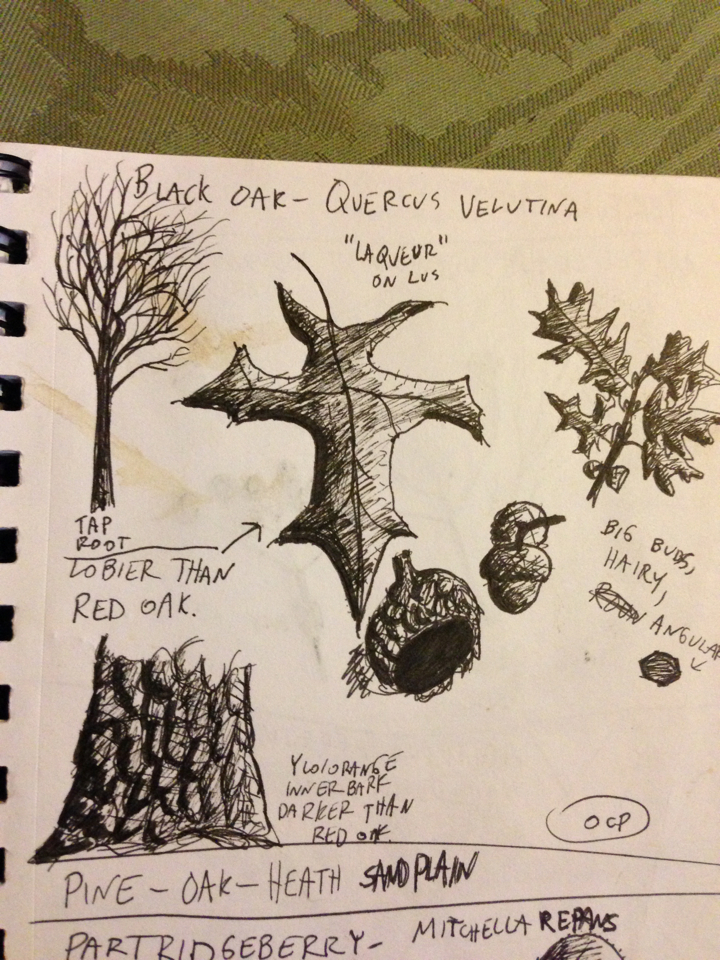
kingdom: Plantae
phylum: Tracheophyta
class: Magnoliopsida
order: Fagales
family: Fagaceae
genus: Quercus
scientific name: Quercus velutina
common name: Black oak
